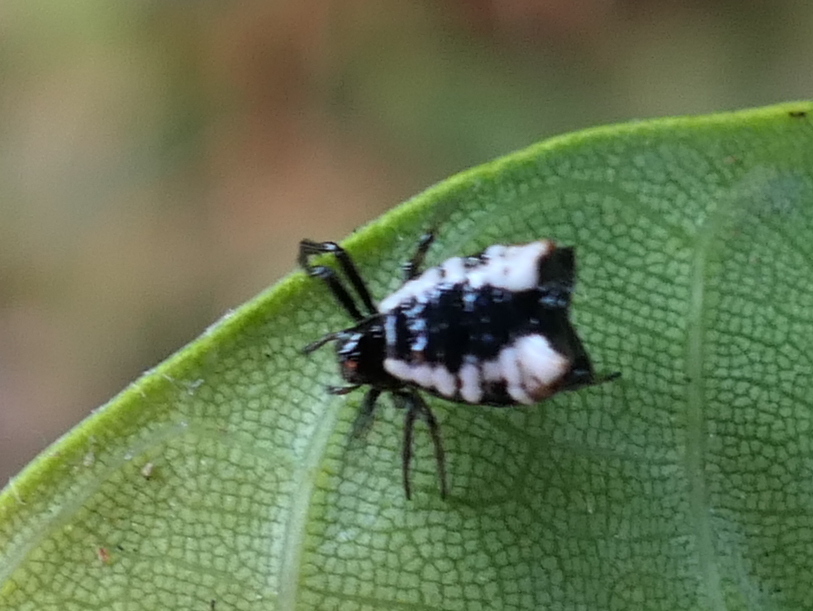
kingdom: Animalia
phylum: Arthropoda
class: Arachnida
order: Araneae
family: Araneidae
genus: Micrathena
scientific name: Micrathena patruelis
